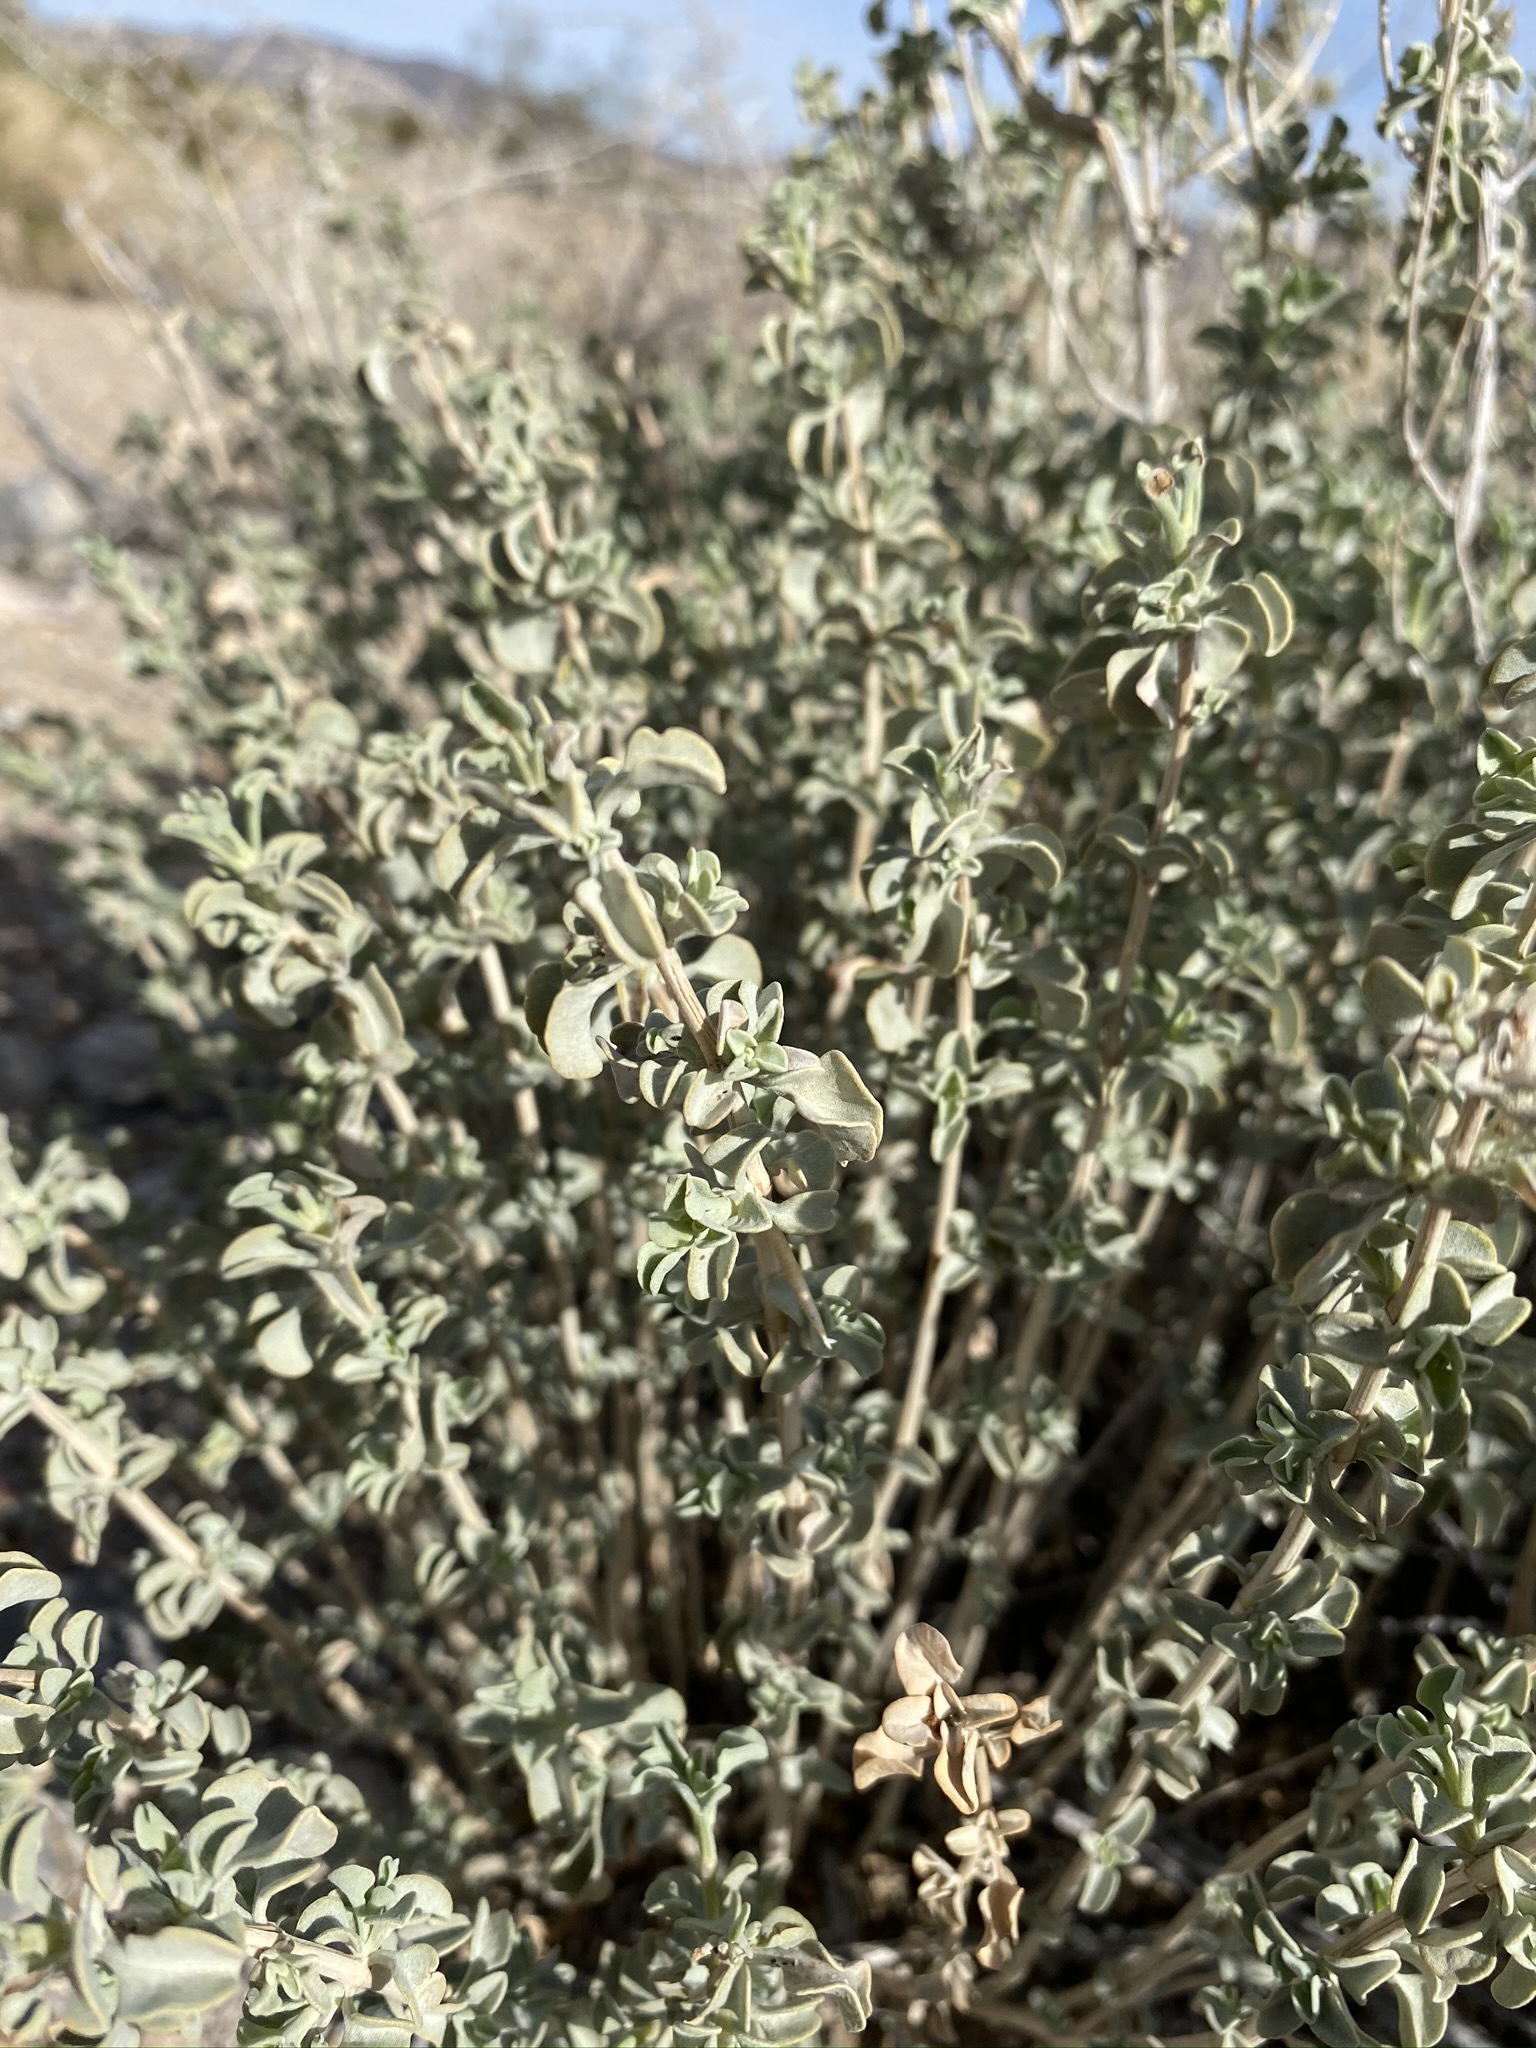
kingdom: Plantae
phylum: Tracheophyta
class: Magnoliopsida
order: Lamiales
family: Lamiaceae
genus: Salvia
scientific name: Salvia dorrii
